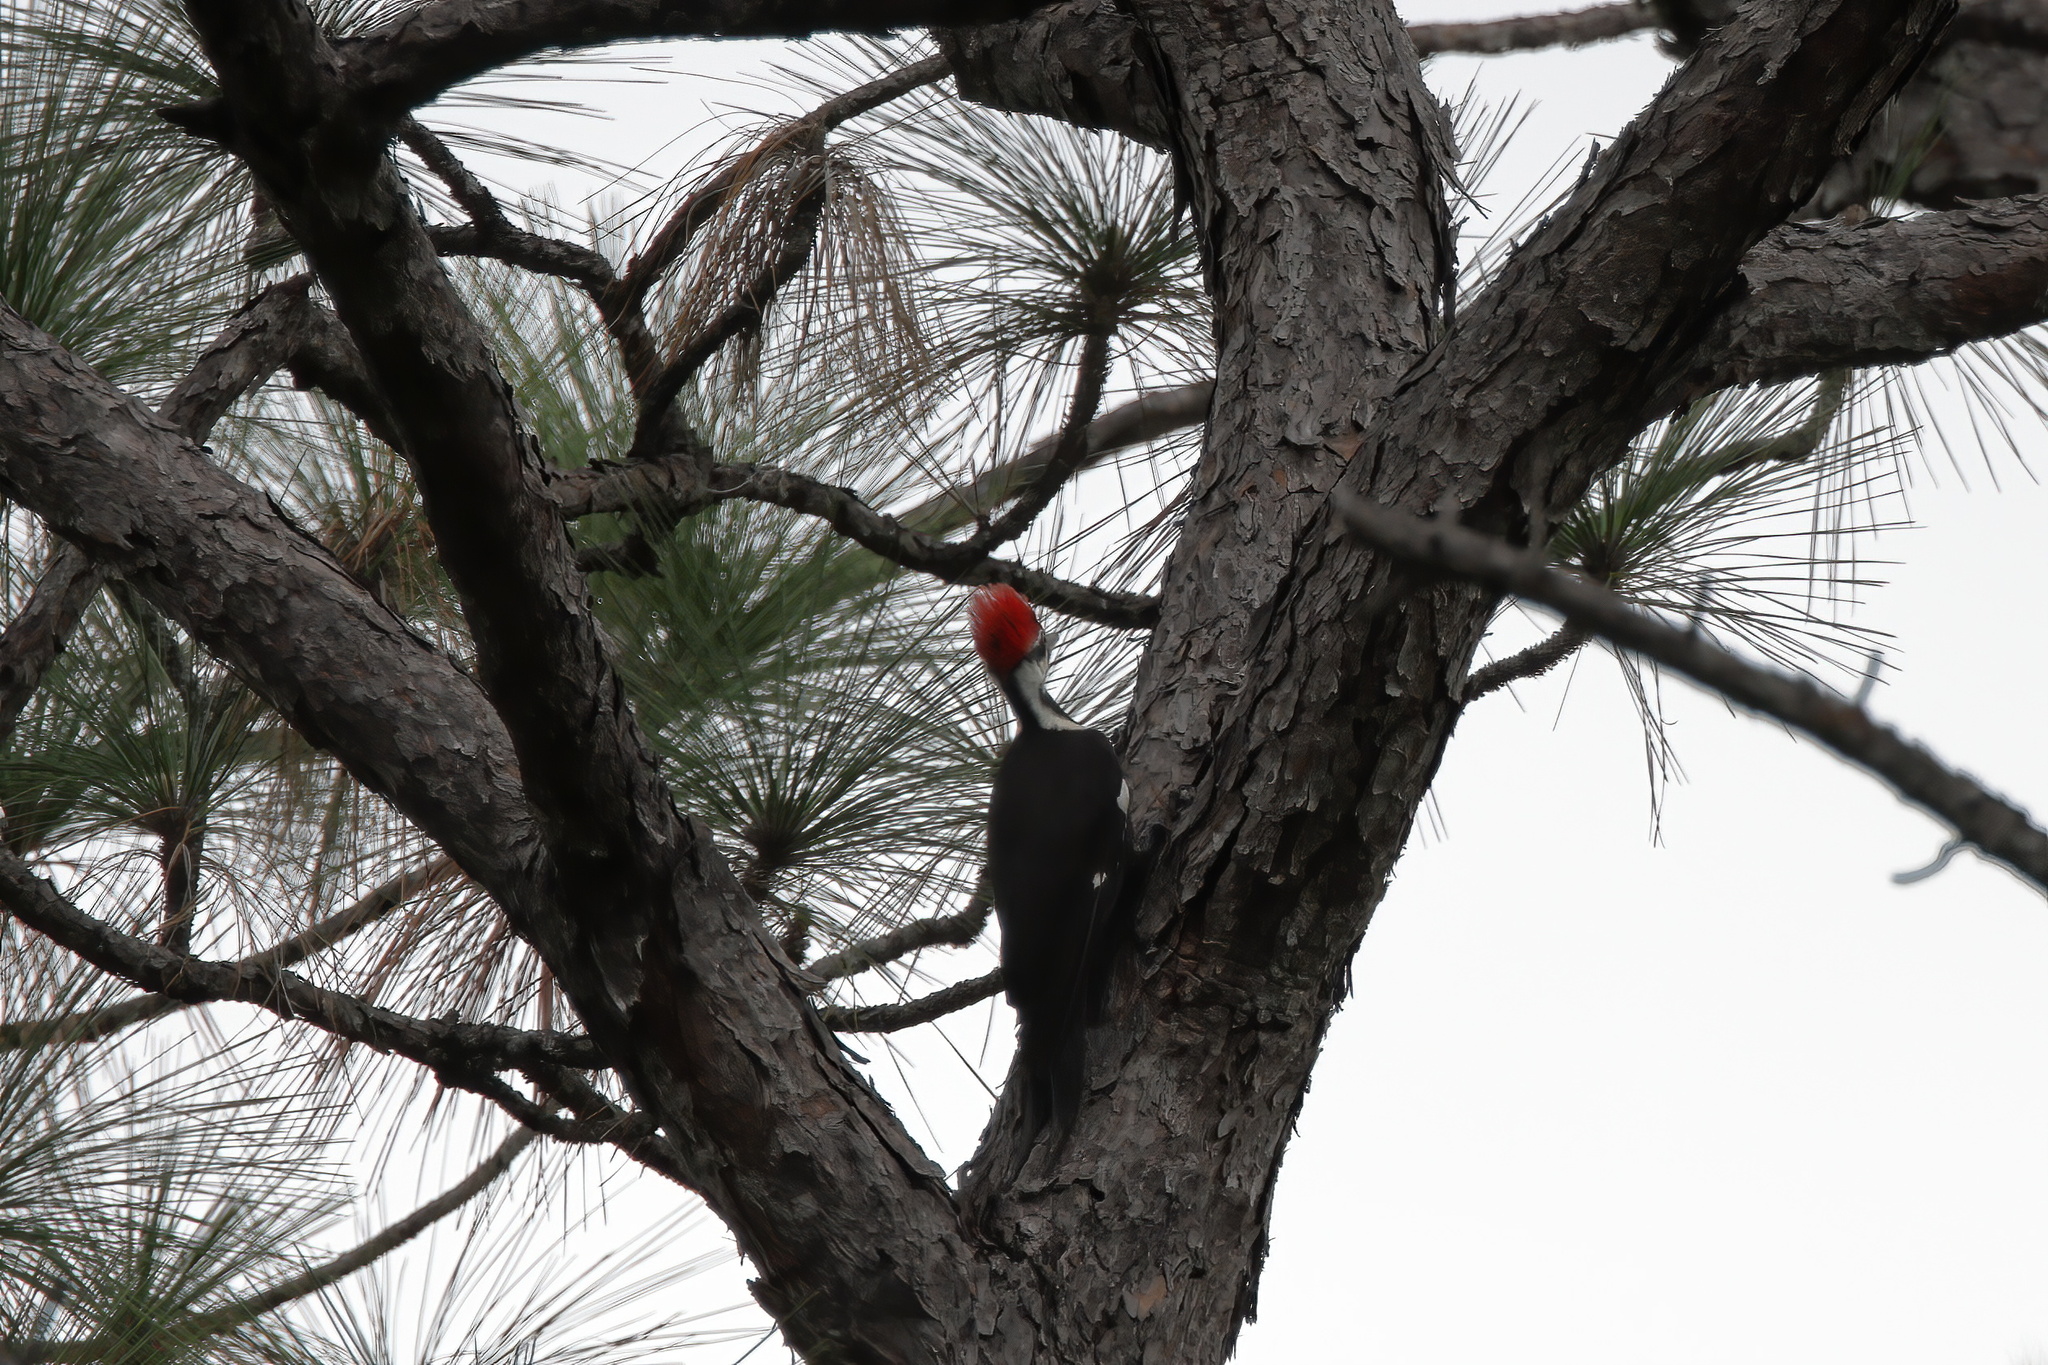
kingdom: Animalia
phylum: Chordata
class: Aves
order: Piciformes
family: Picidae
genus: Dryocopus
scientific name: Dryocopus pileatus
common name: Pileated woodpecker
